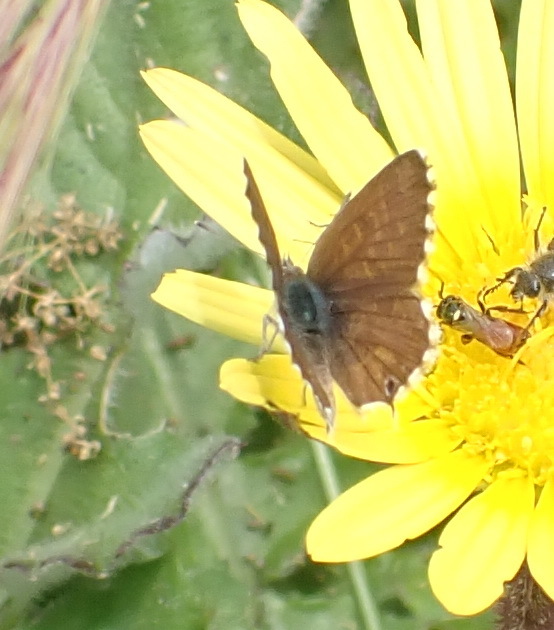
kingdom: Animalia
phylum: Arthropoda
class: Insecta
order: Lepidoptera
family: Lycaenidae
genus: Cacyreus
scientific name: Cacyreus marshalli
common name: Geranium bronze
